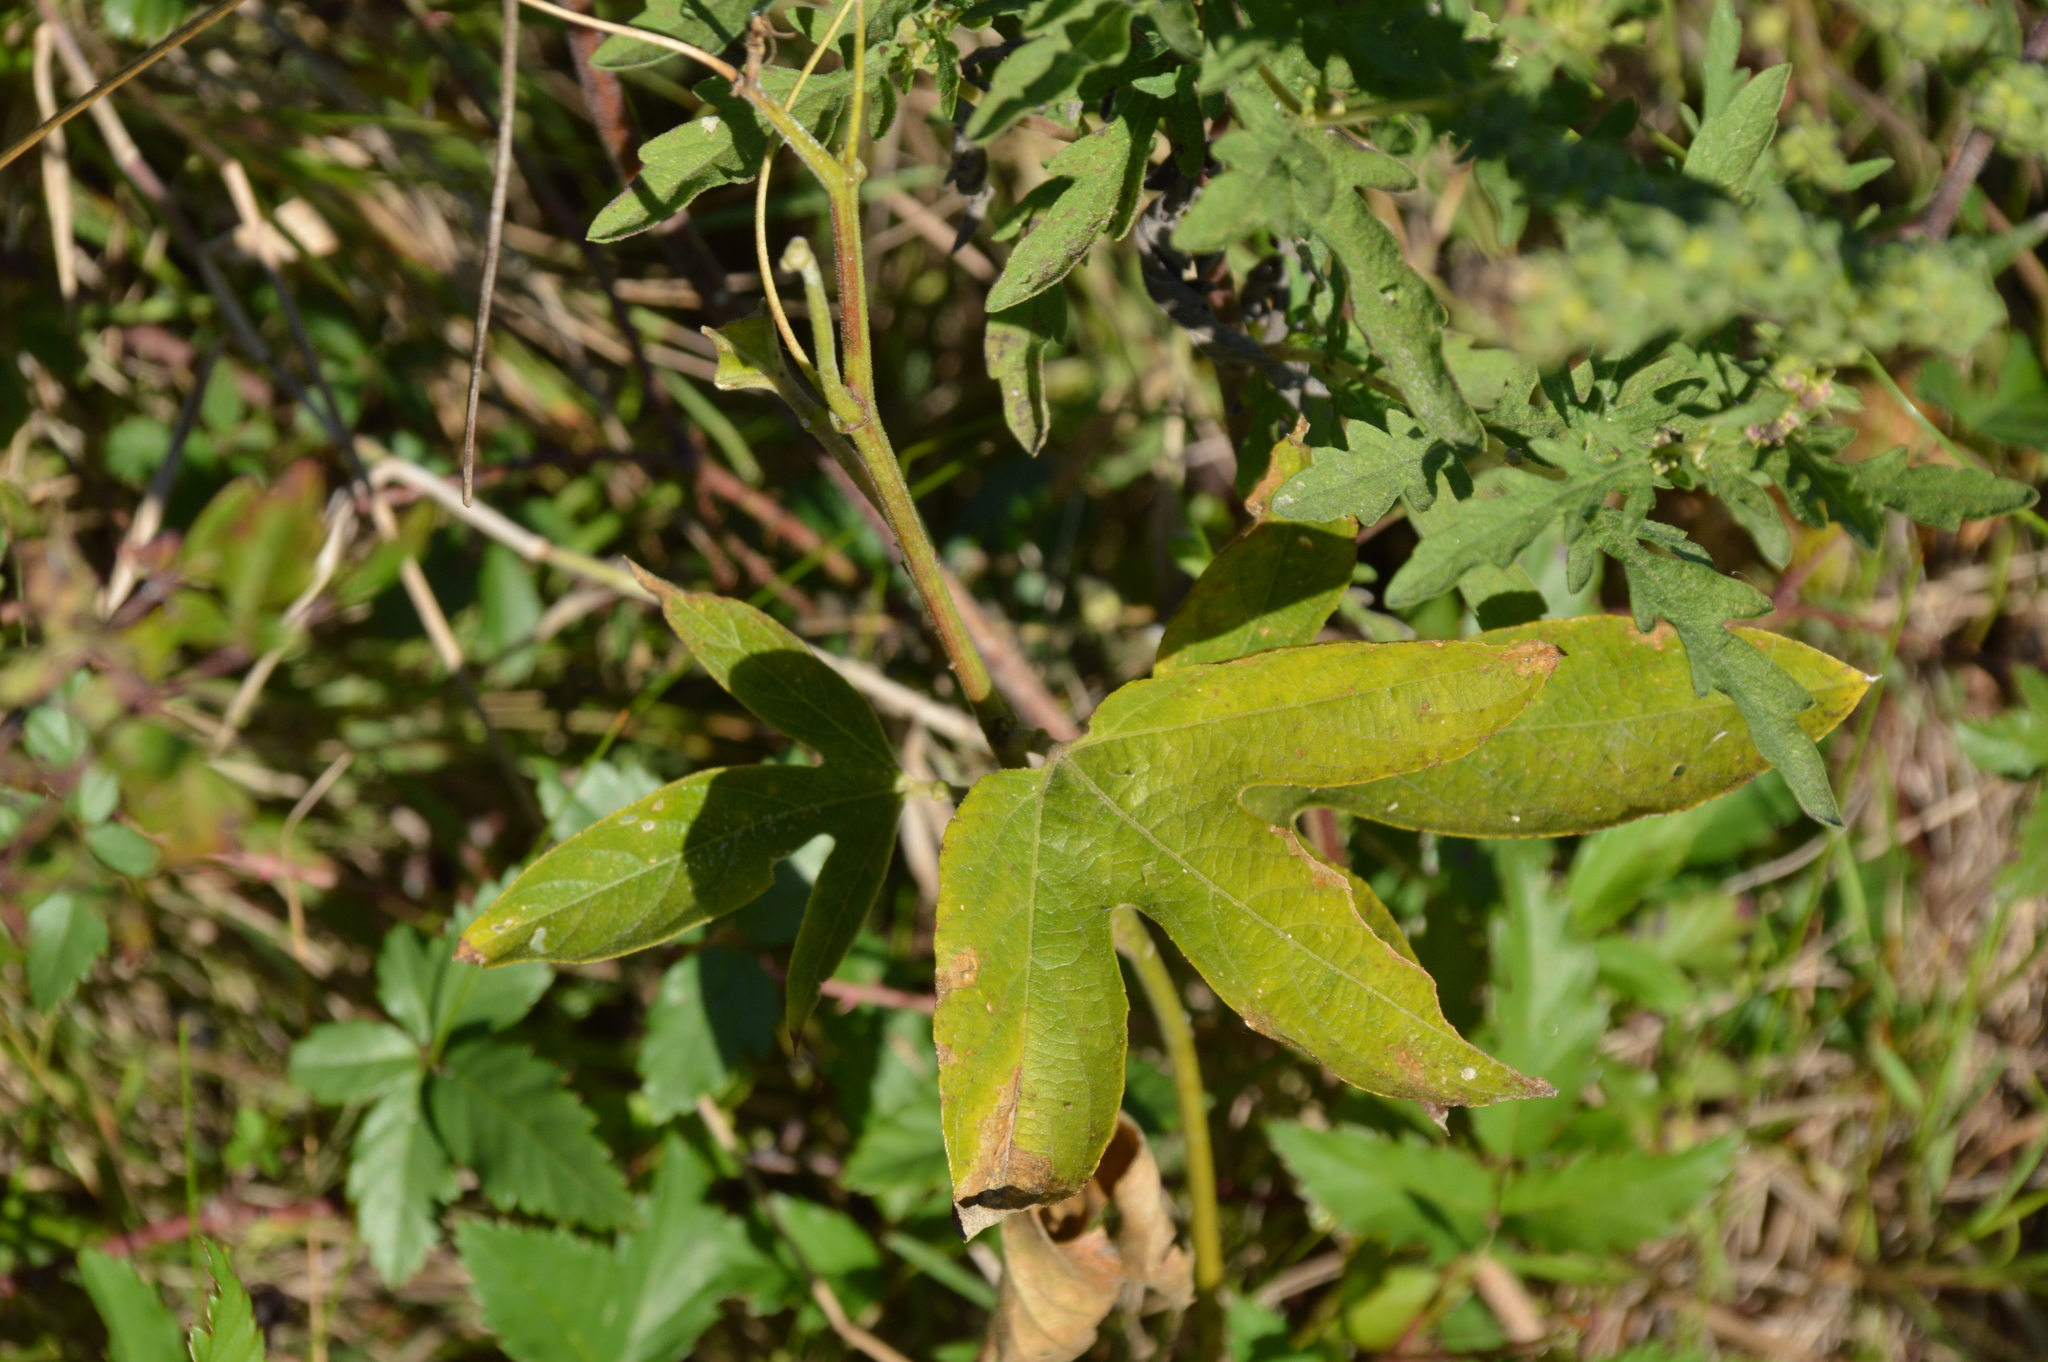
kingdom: Plantae
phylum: Tracheophyta
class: Magnoliopsida
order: Malpighiales
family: Passifloraceae
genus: Passiflora
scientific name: Passiflora incarnata
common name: Apricot-vine
